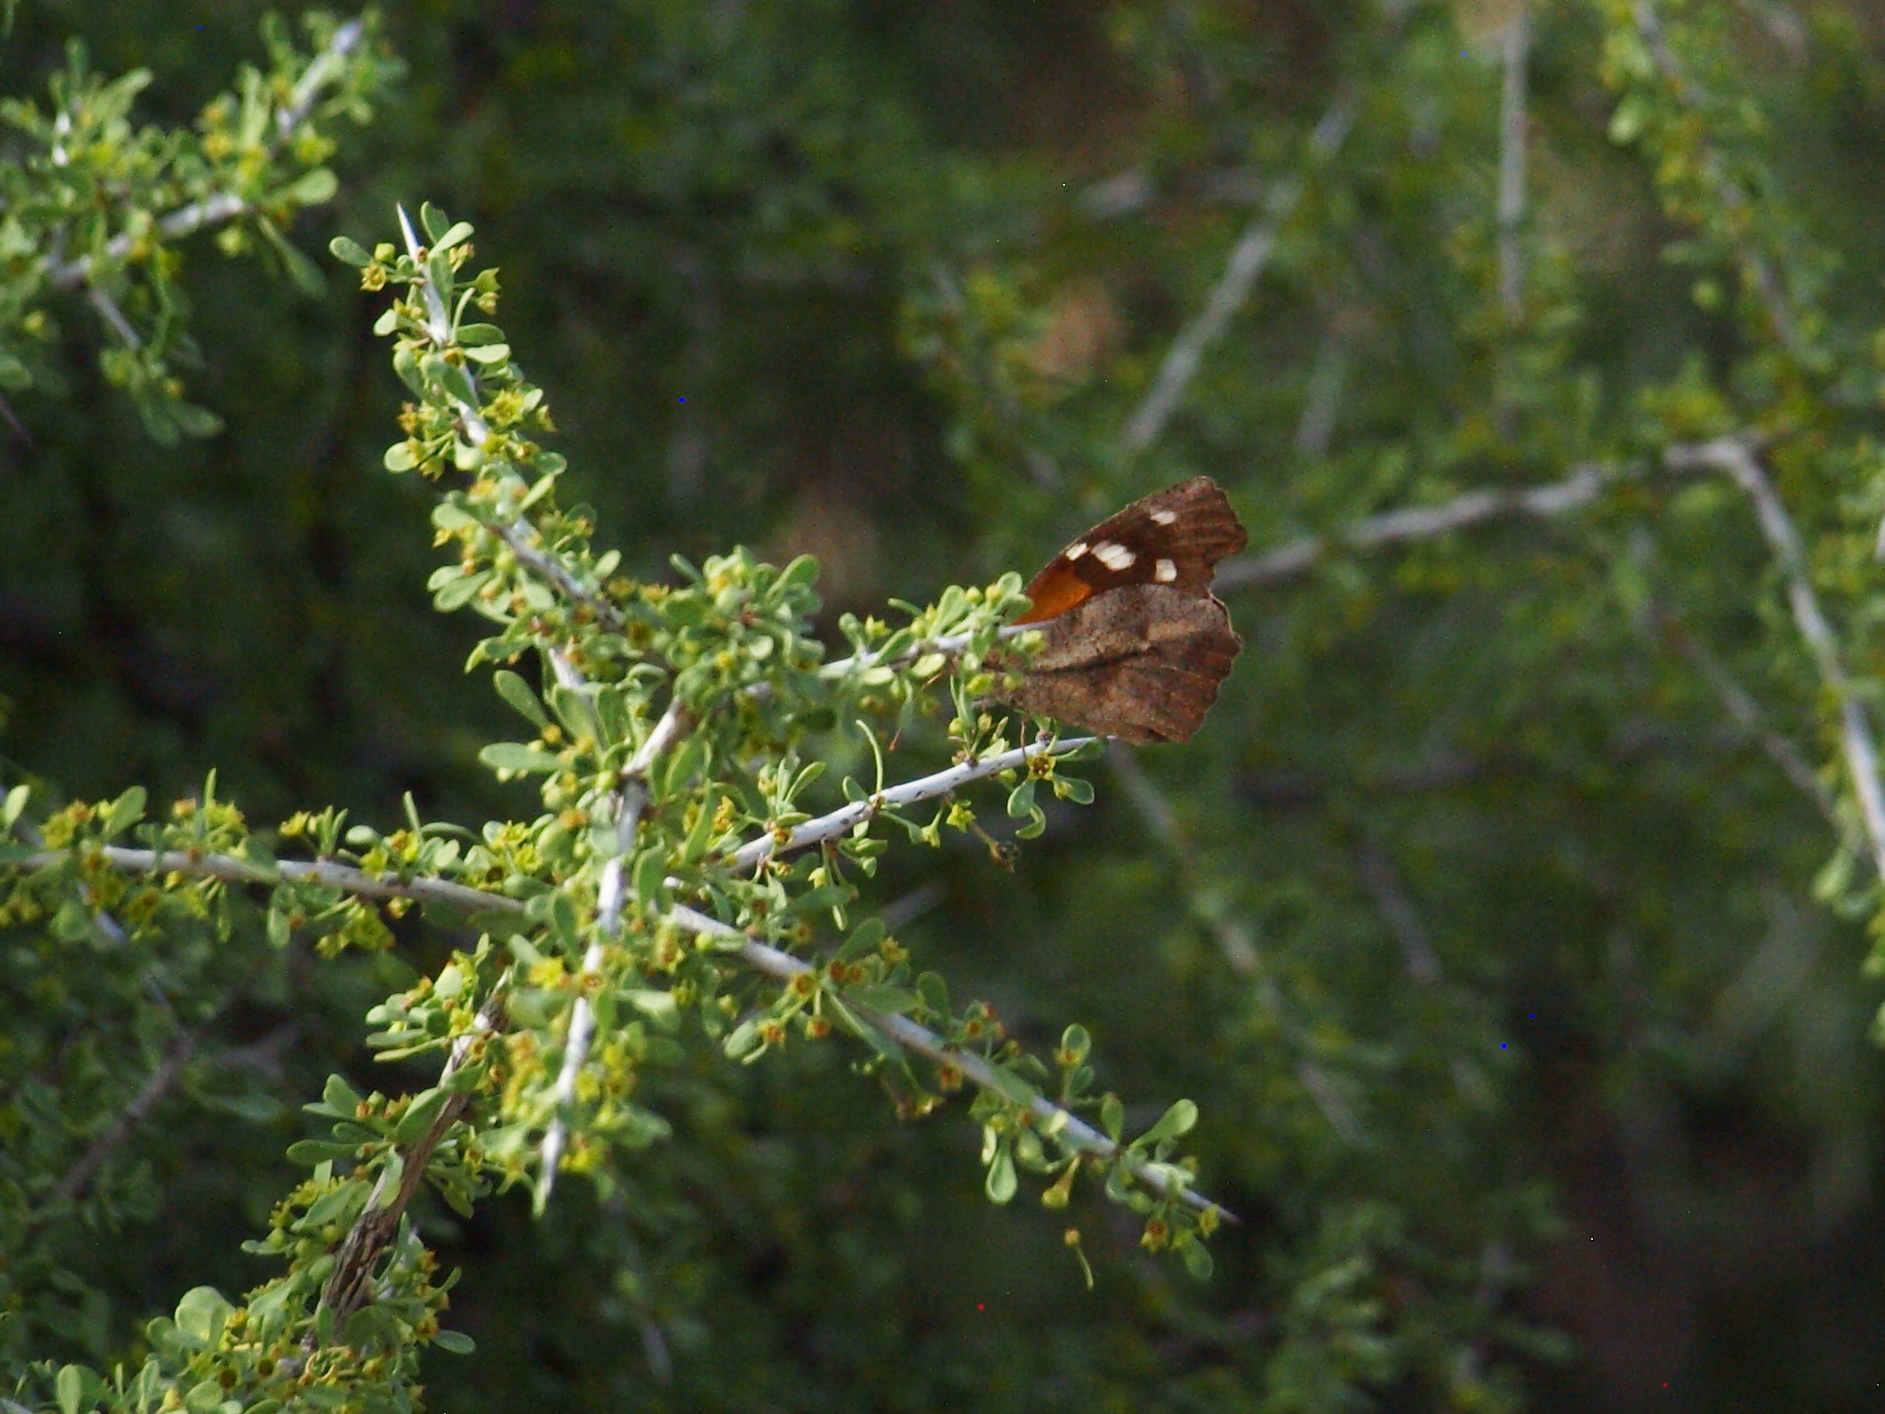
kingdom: Animalia
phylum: Arthropoda
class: Insecta
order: Lepidoptera
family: Nymphalidae
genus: Libytheana
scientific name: Libytheana carinenta
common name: American snout
